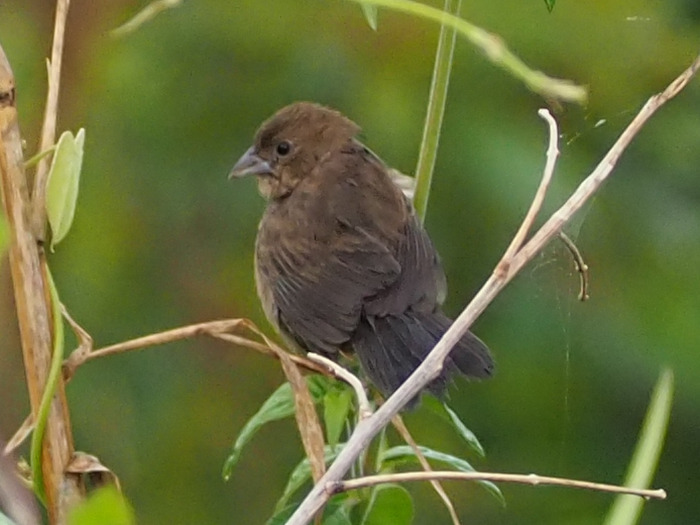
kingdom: Animalia
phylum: Chordata
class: Aves
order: Passeriformes
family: Thraupidae
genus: Volatinia
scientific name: Volatinia jacarina
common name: Blue-black grassquit
